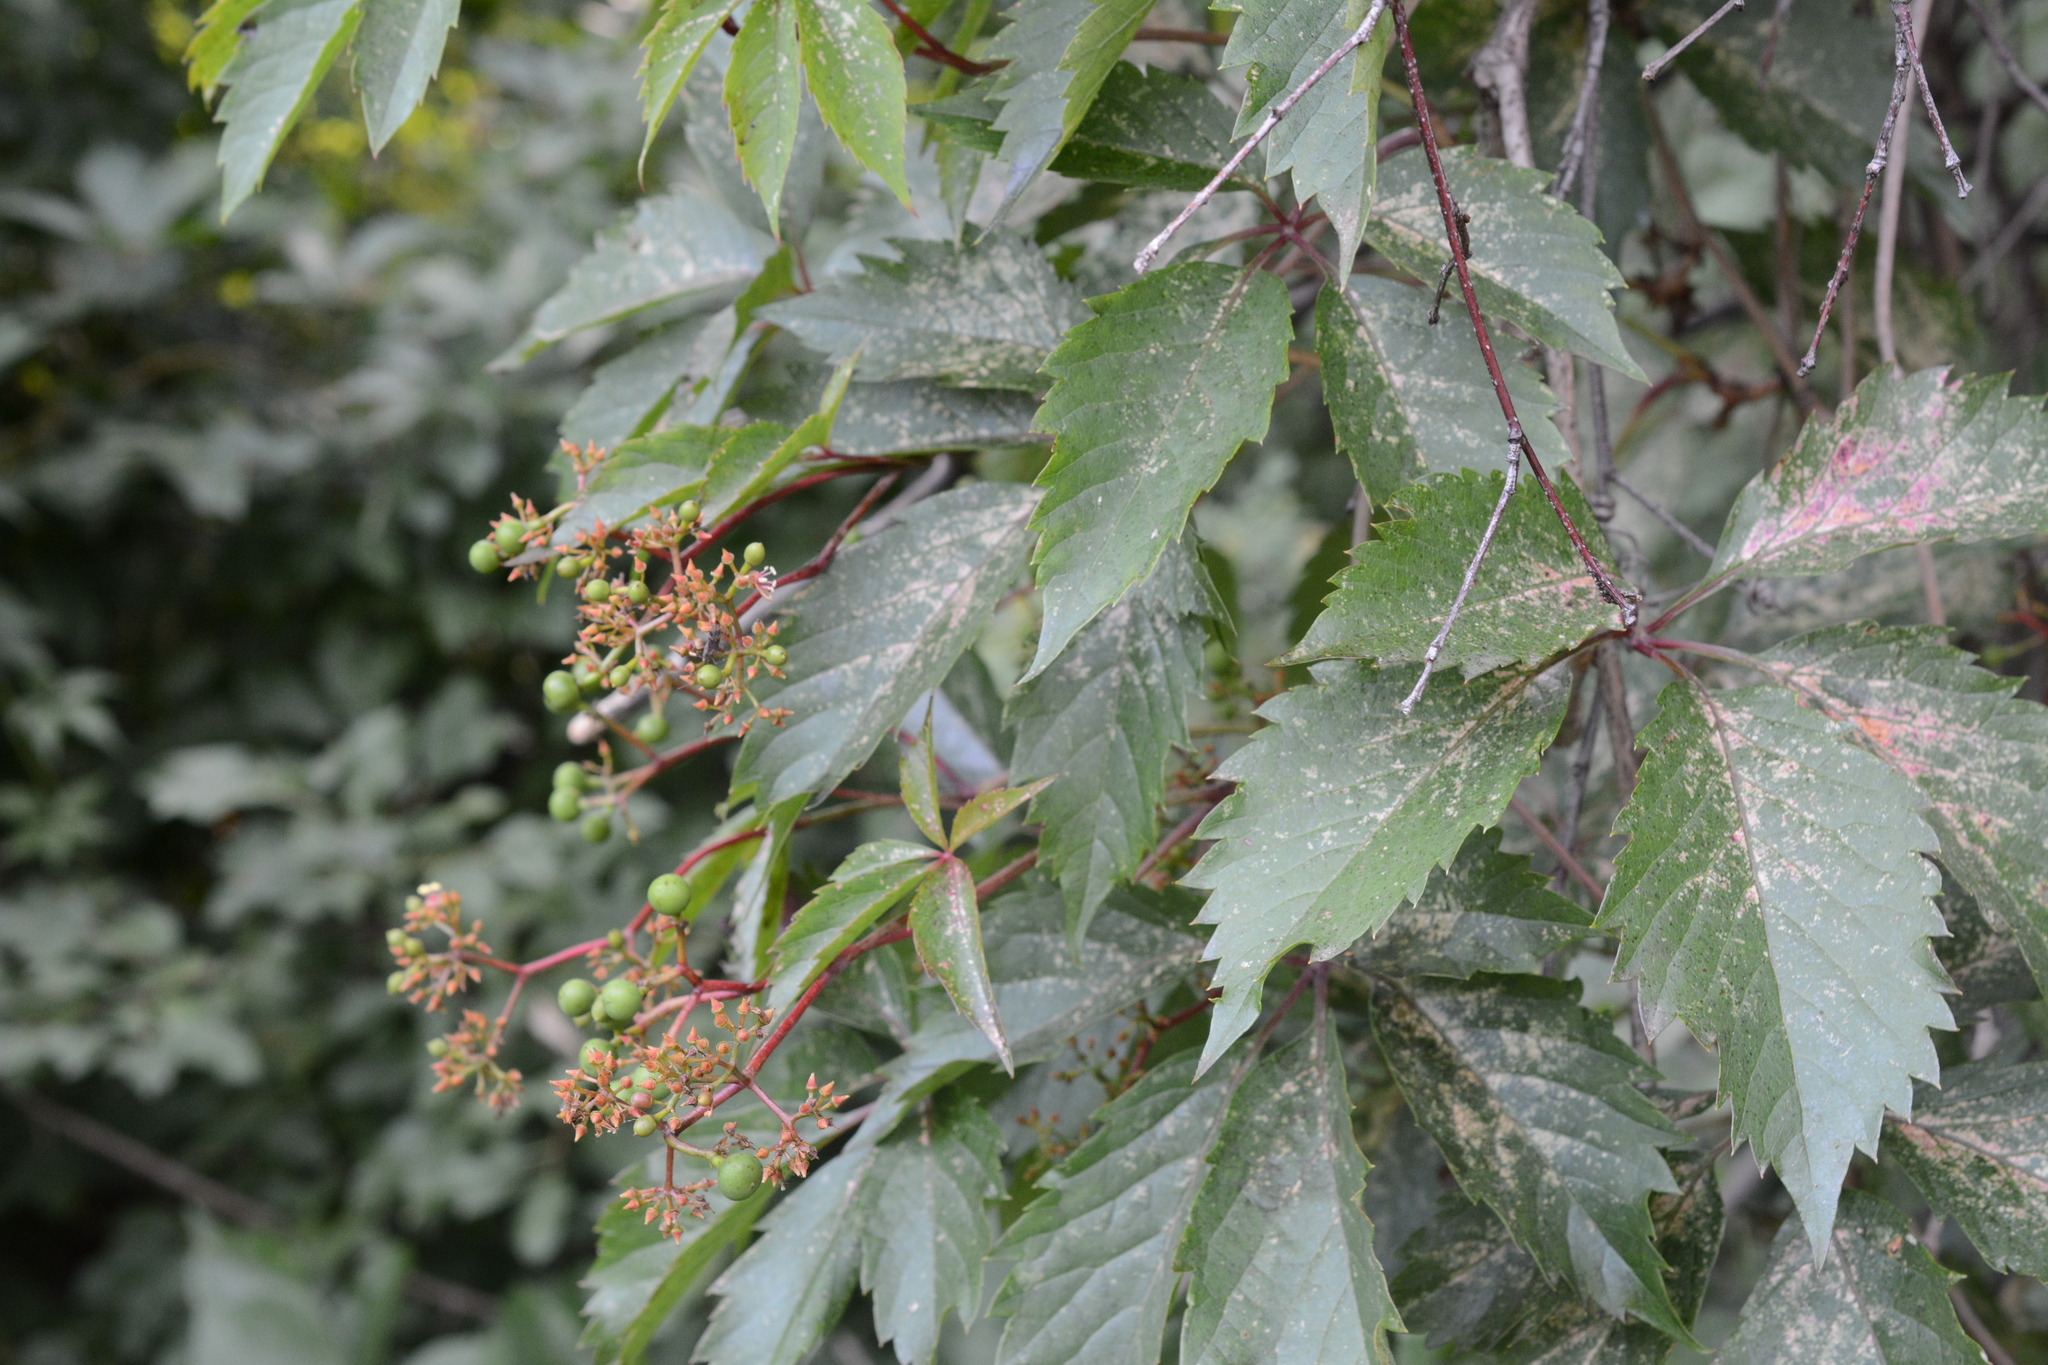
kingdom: Plantae
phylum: Tracheophyta
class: Magnoliopsida
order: Vitales
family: Vitaceae
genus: Parthenocissus
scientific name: Parthenocissus inserta
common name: False virginia-creeper
